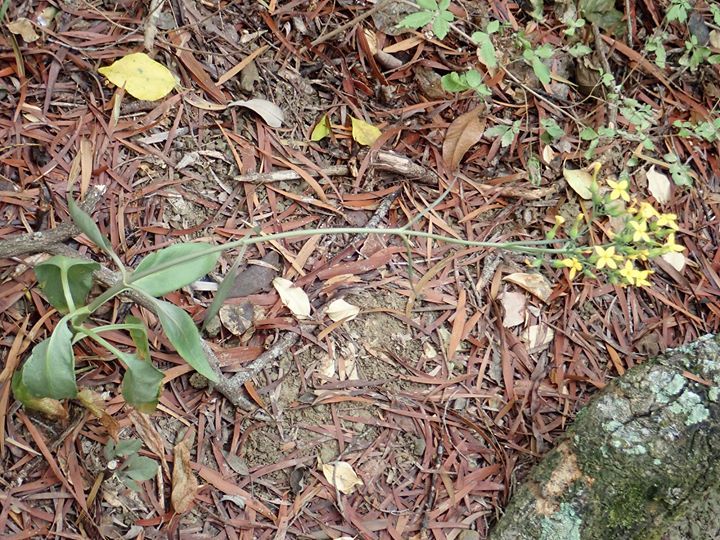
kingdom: Plantae
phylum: Tracheophyta
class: Magnoliopsida
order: Saxifragales
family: Crassulaceae
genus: Kalanchoe
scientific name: Kalanchoe integra
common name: Neverdie
